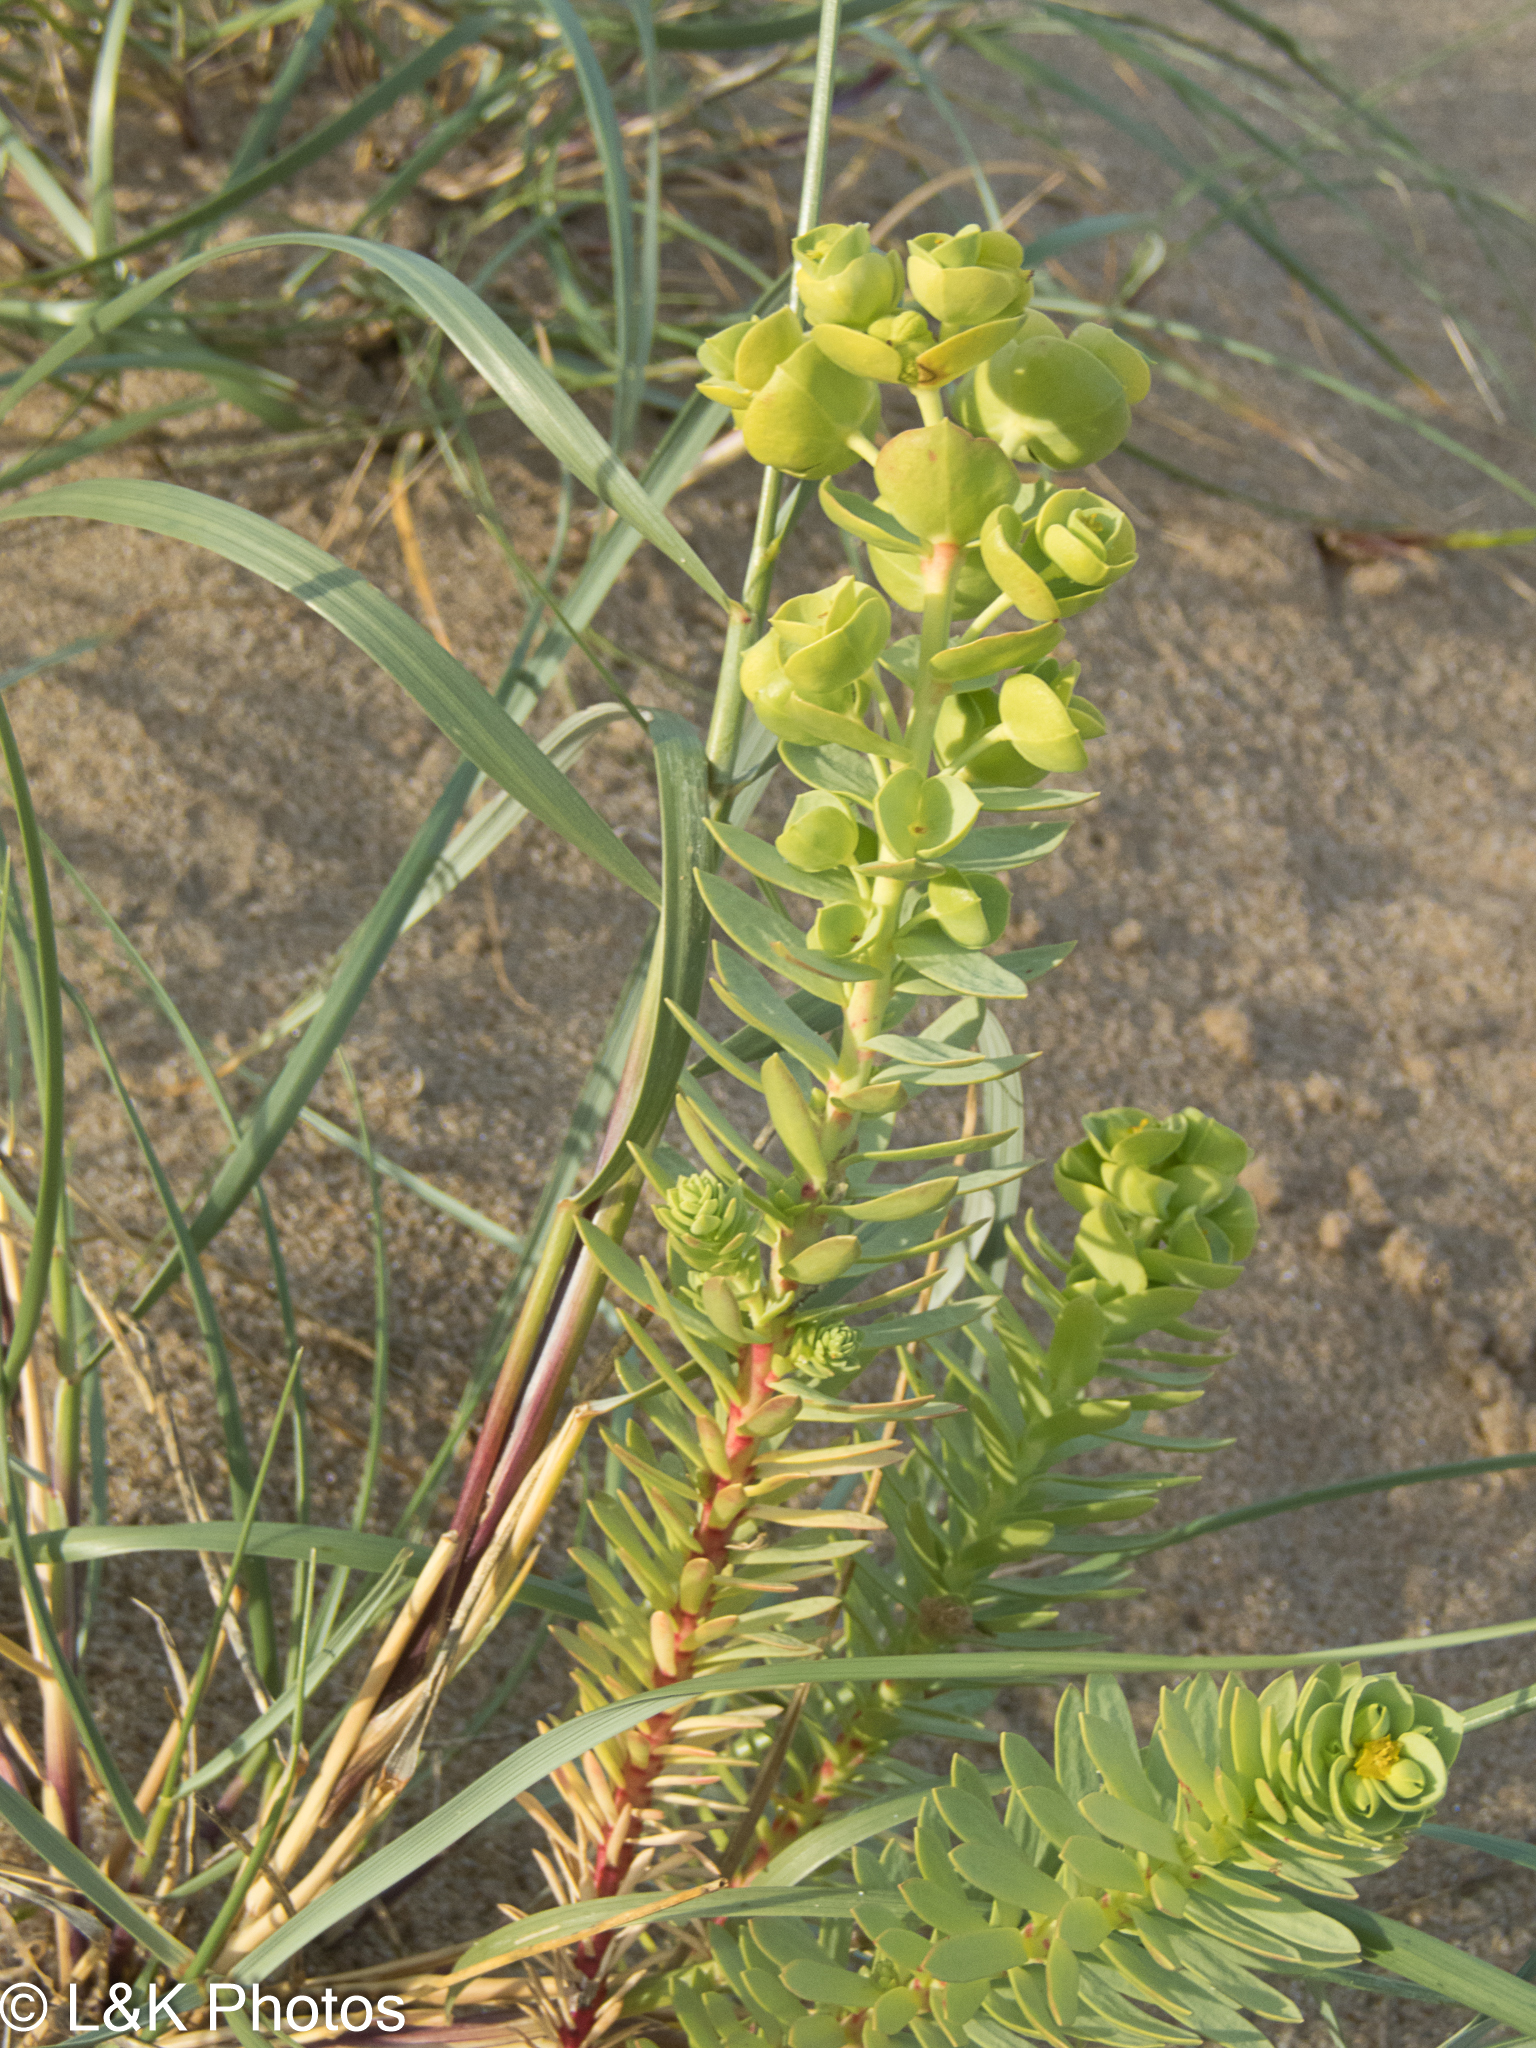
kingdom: Plantae
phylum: Tracheophyta
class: Magnoliopsida
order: Malpighiales
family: Euphorbiaceae
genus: Euphorbia
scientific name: Euphorbia paralias
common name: Sea spurge
